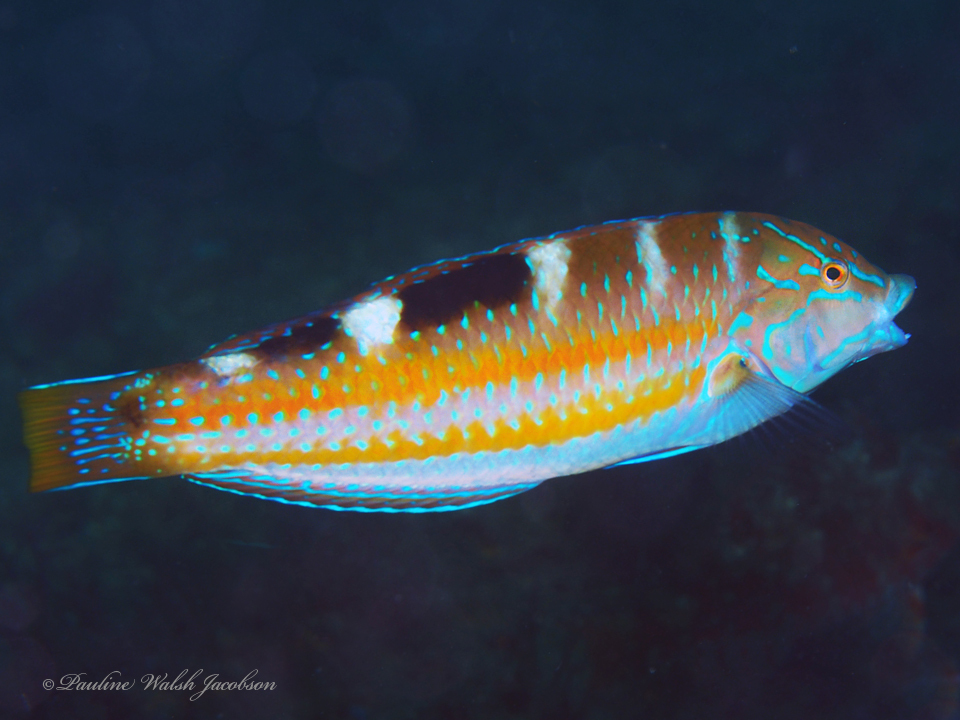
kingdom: Animalia
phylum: Chordata
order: Perciformes
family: Labridae
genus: Halichoeres
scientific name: Halichoeres radiatus
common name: Puddingwife
